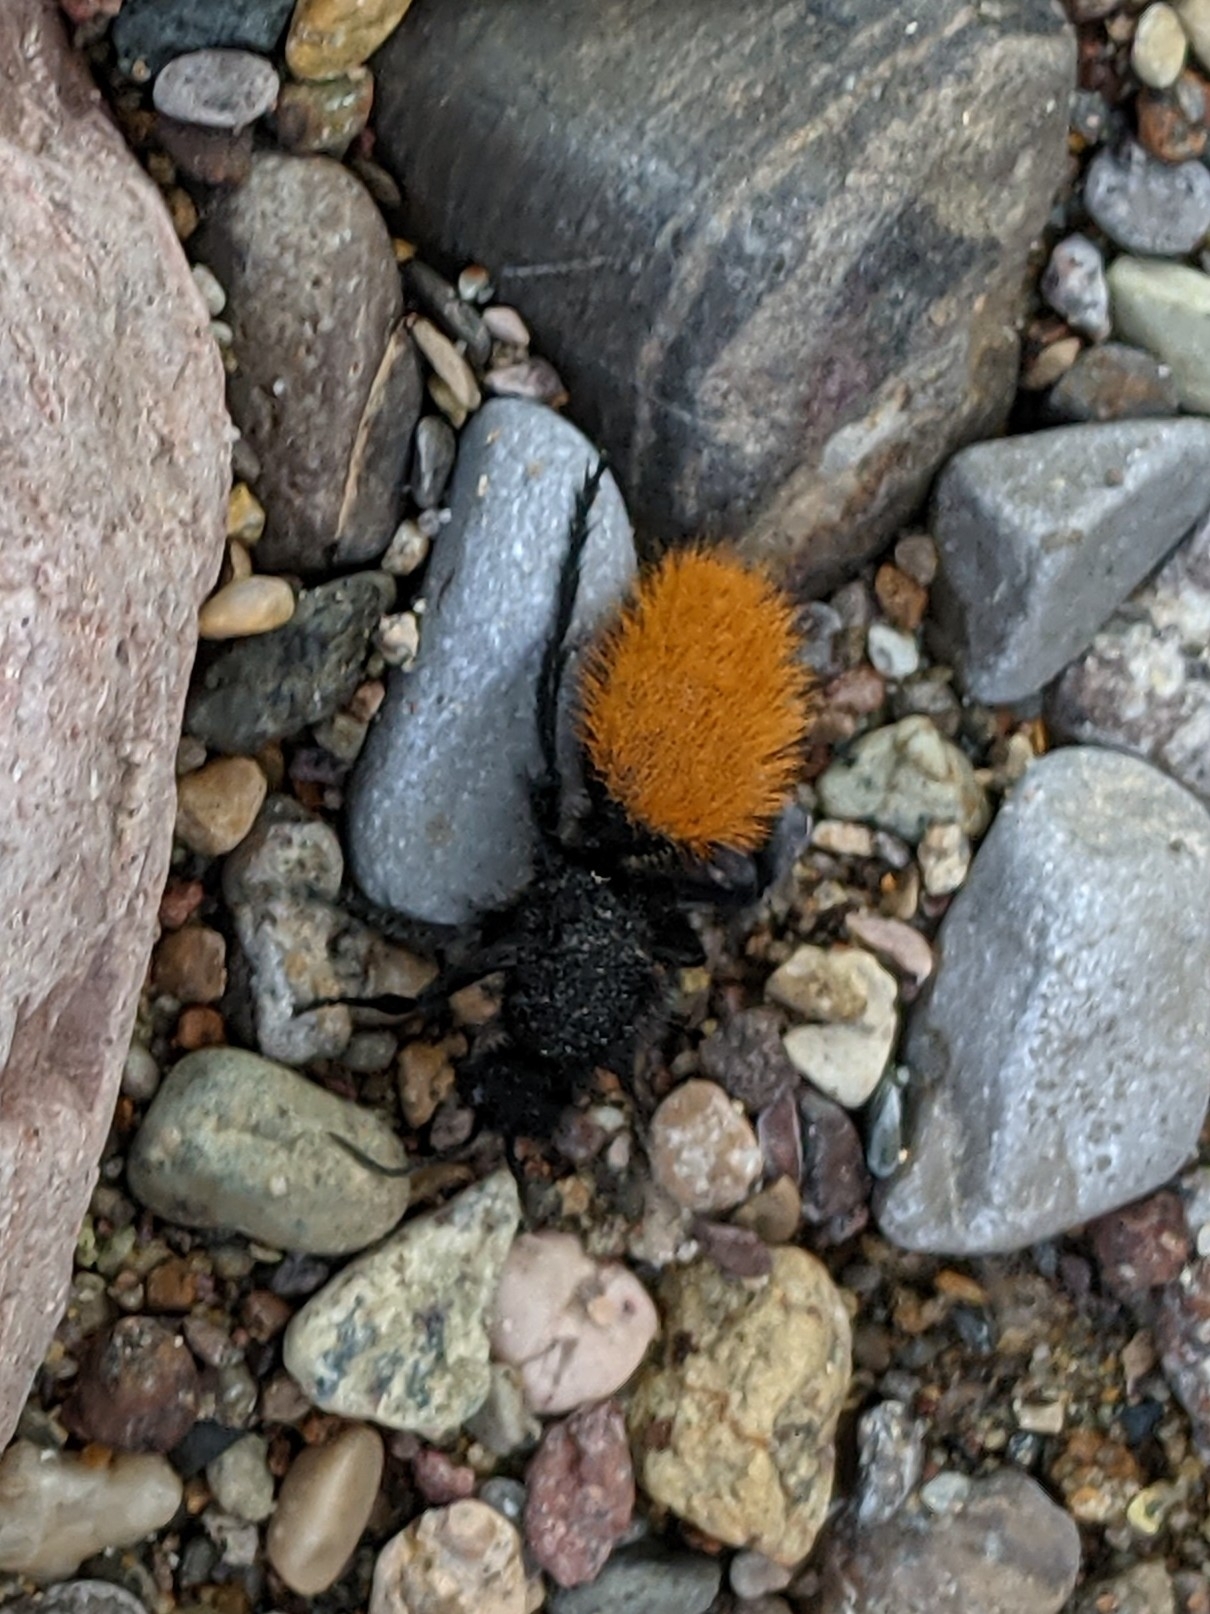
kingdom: Animalia
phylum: Arthropoda
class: Insecta
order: Hymenoptera
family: Mutillidae
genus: Dasymutilla
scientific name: Dasymutilla
